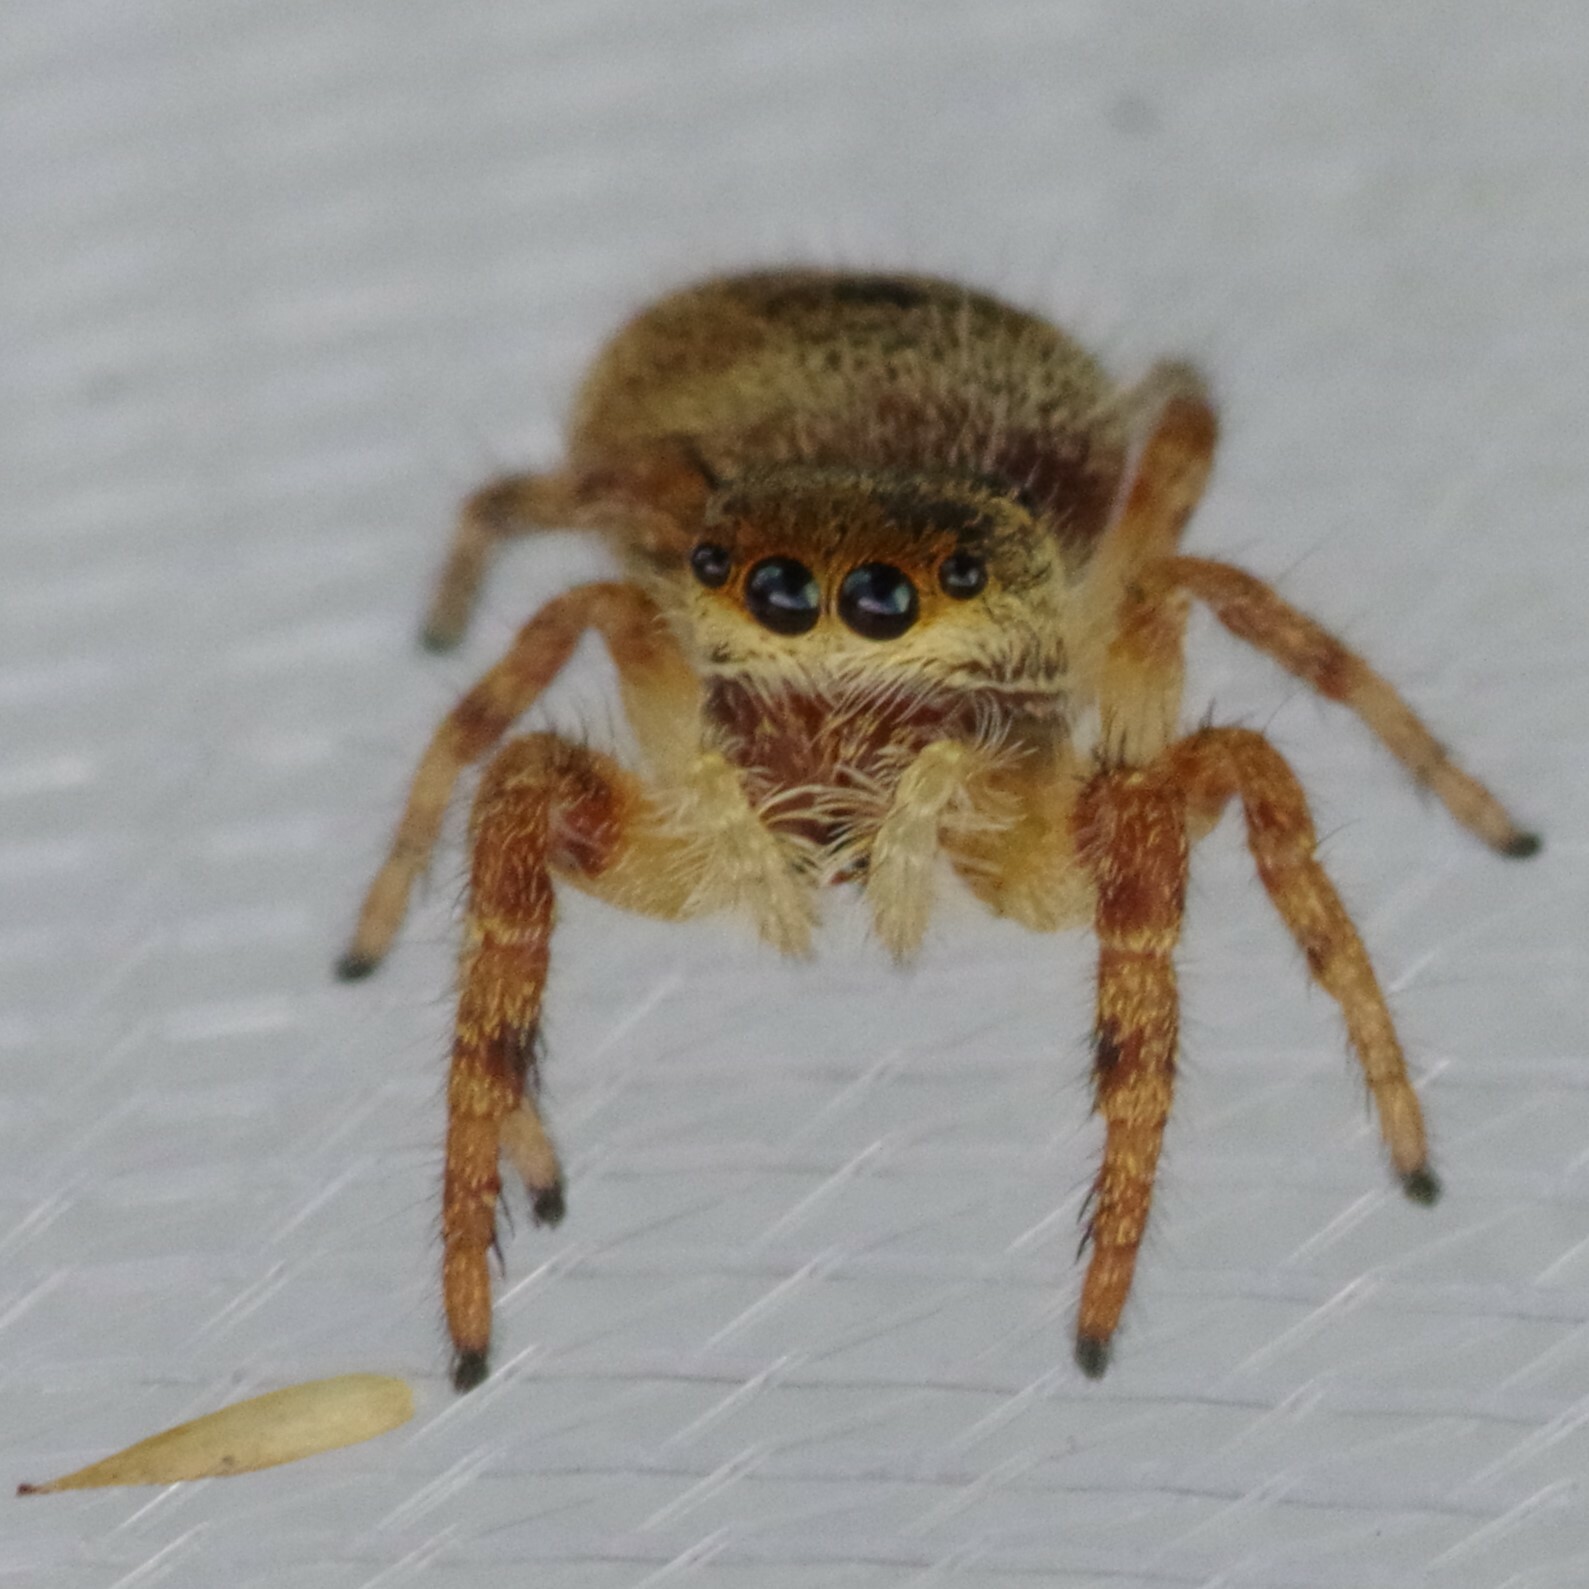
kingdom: Animalia
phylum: Arthropoda
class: Arachnida
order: Araneae
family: Salticidae
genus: Phidippus
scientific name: Phidippus princeps
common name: Grayish jumping spider
